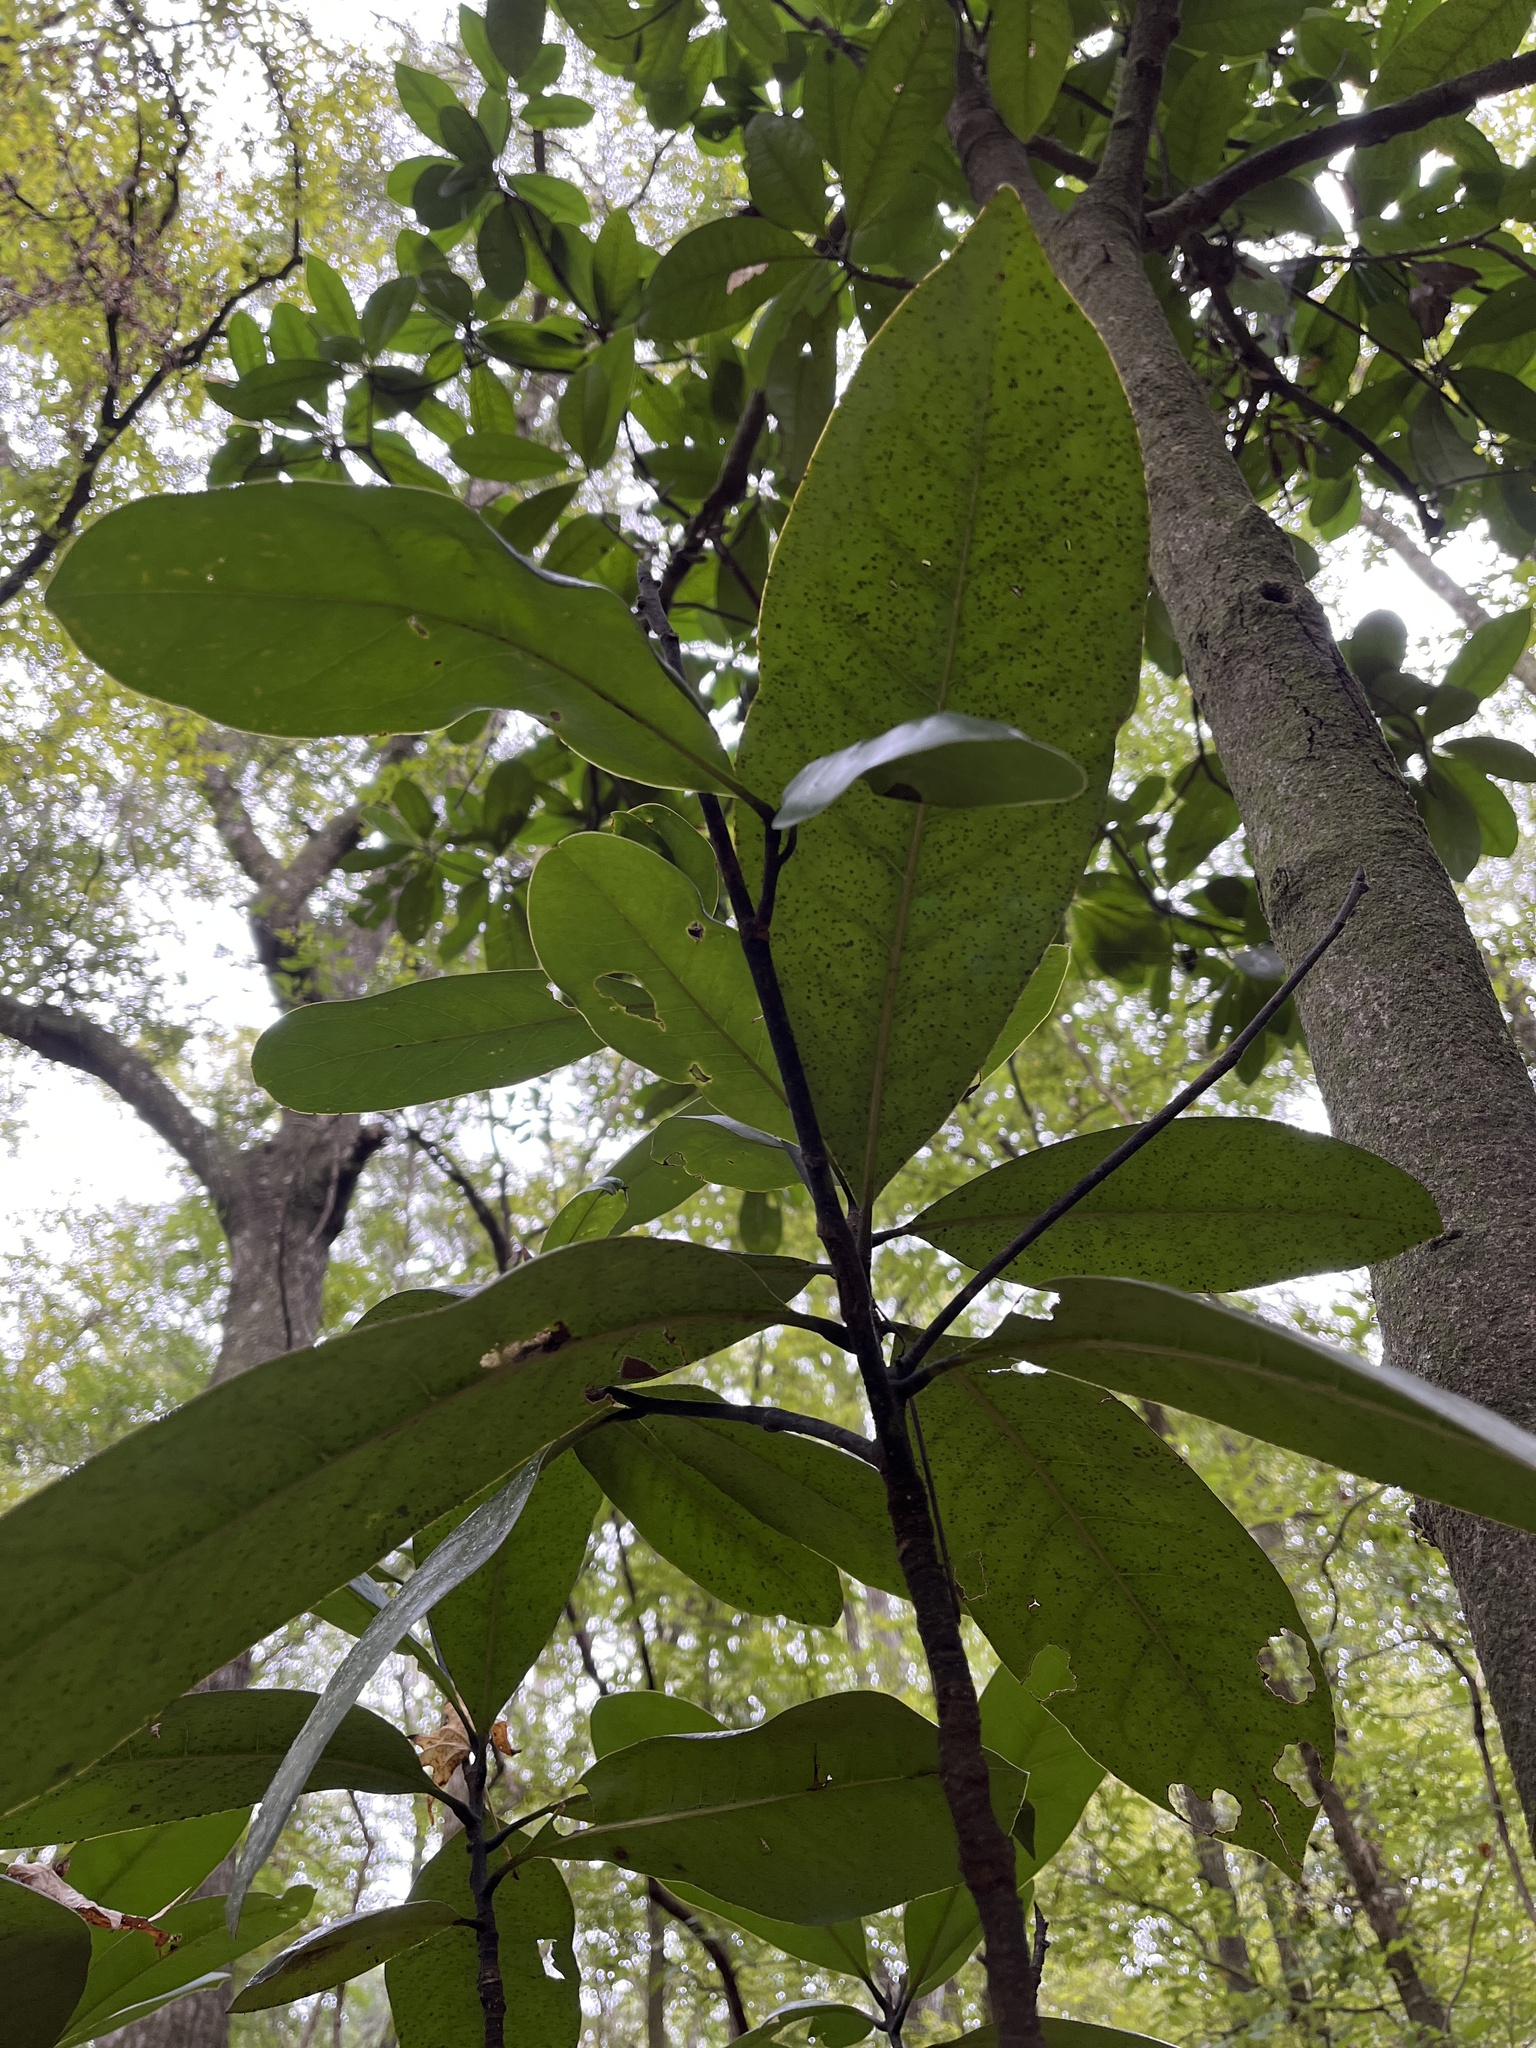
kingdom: Plantae
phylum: Tracheophyta
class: Magnoliopsida
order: Magnoliales
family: Magnoliaceae
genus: Magnolia
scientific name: Magnolia grandiflora
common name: Southern magnolia
